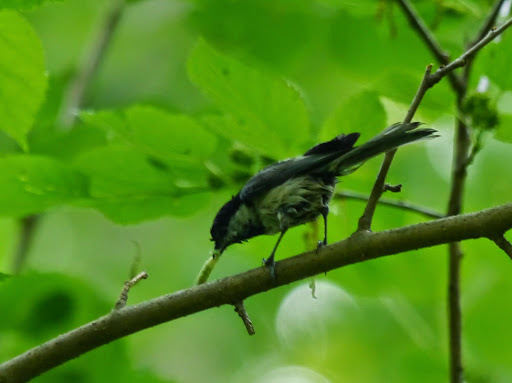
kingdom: Animalia
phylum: Chordata
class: Aves
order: Passeriformes
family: Paridae
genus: Poecile
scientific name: Poecile carolinensis
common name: Carolina chickadee
